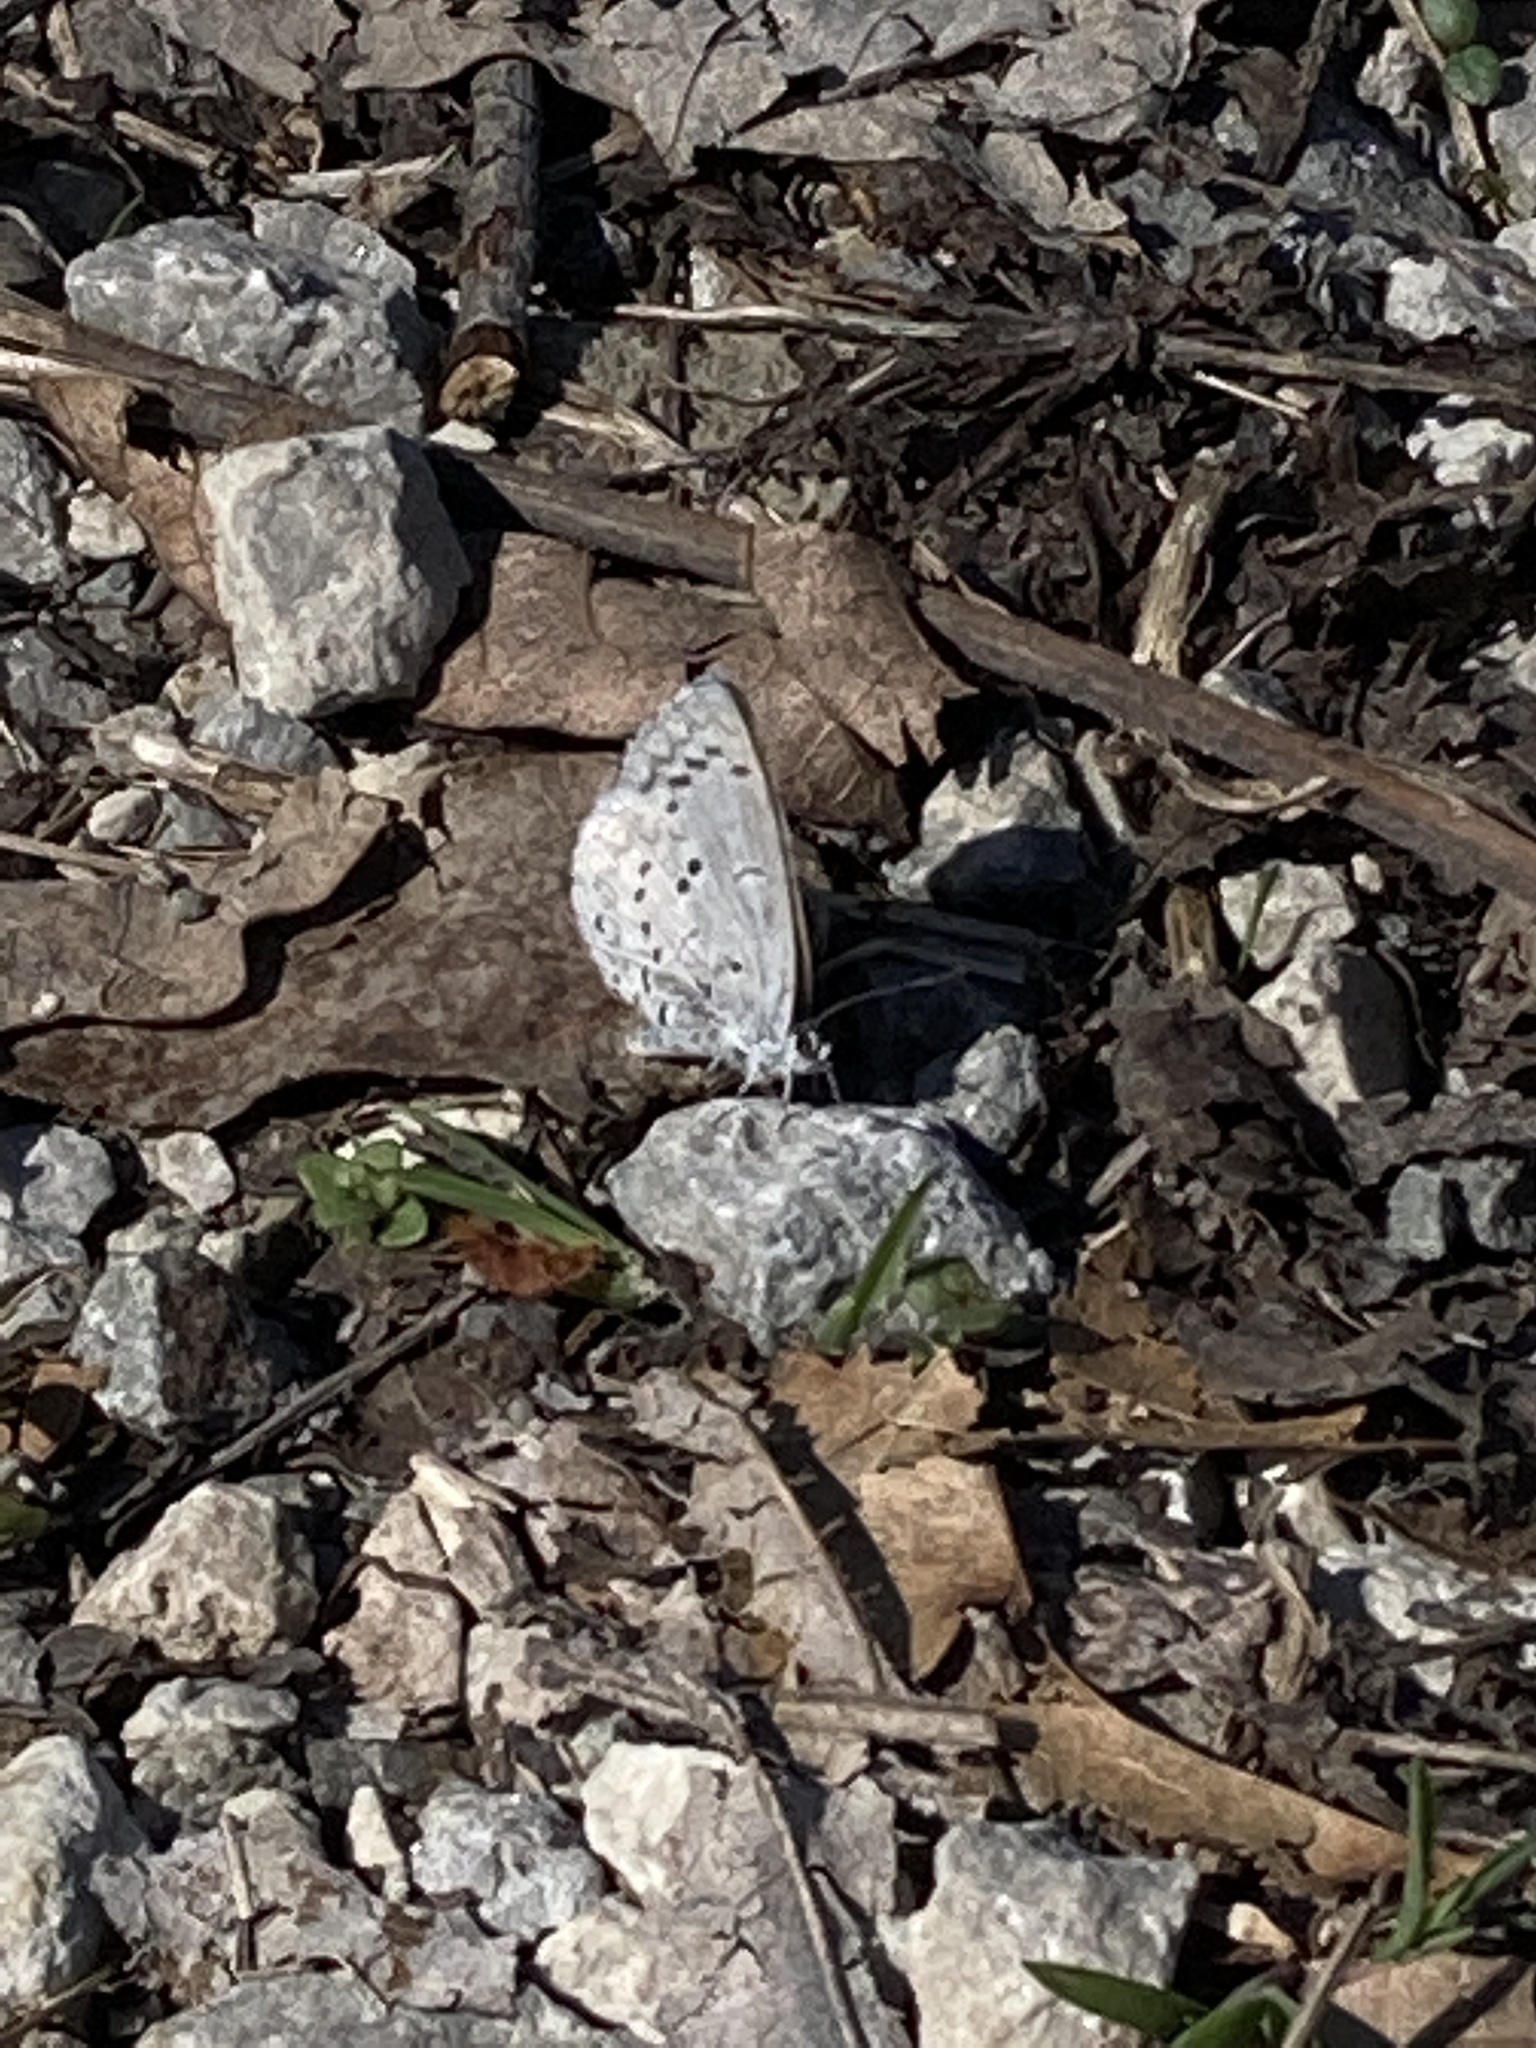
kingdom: Animalia
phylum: Arthropoda
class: Insecta
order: Lepidoptera
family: Lycaenidae
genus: Celastrina
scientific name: Celastrina ladon
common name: Spring azure
